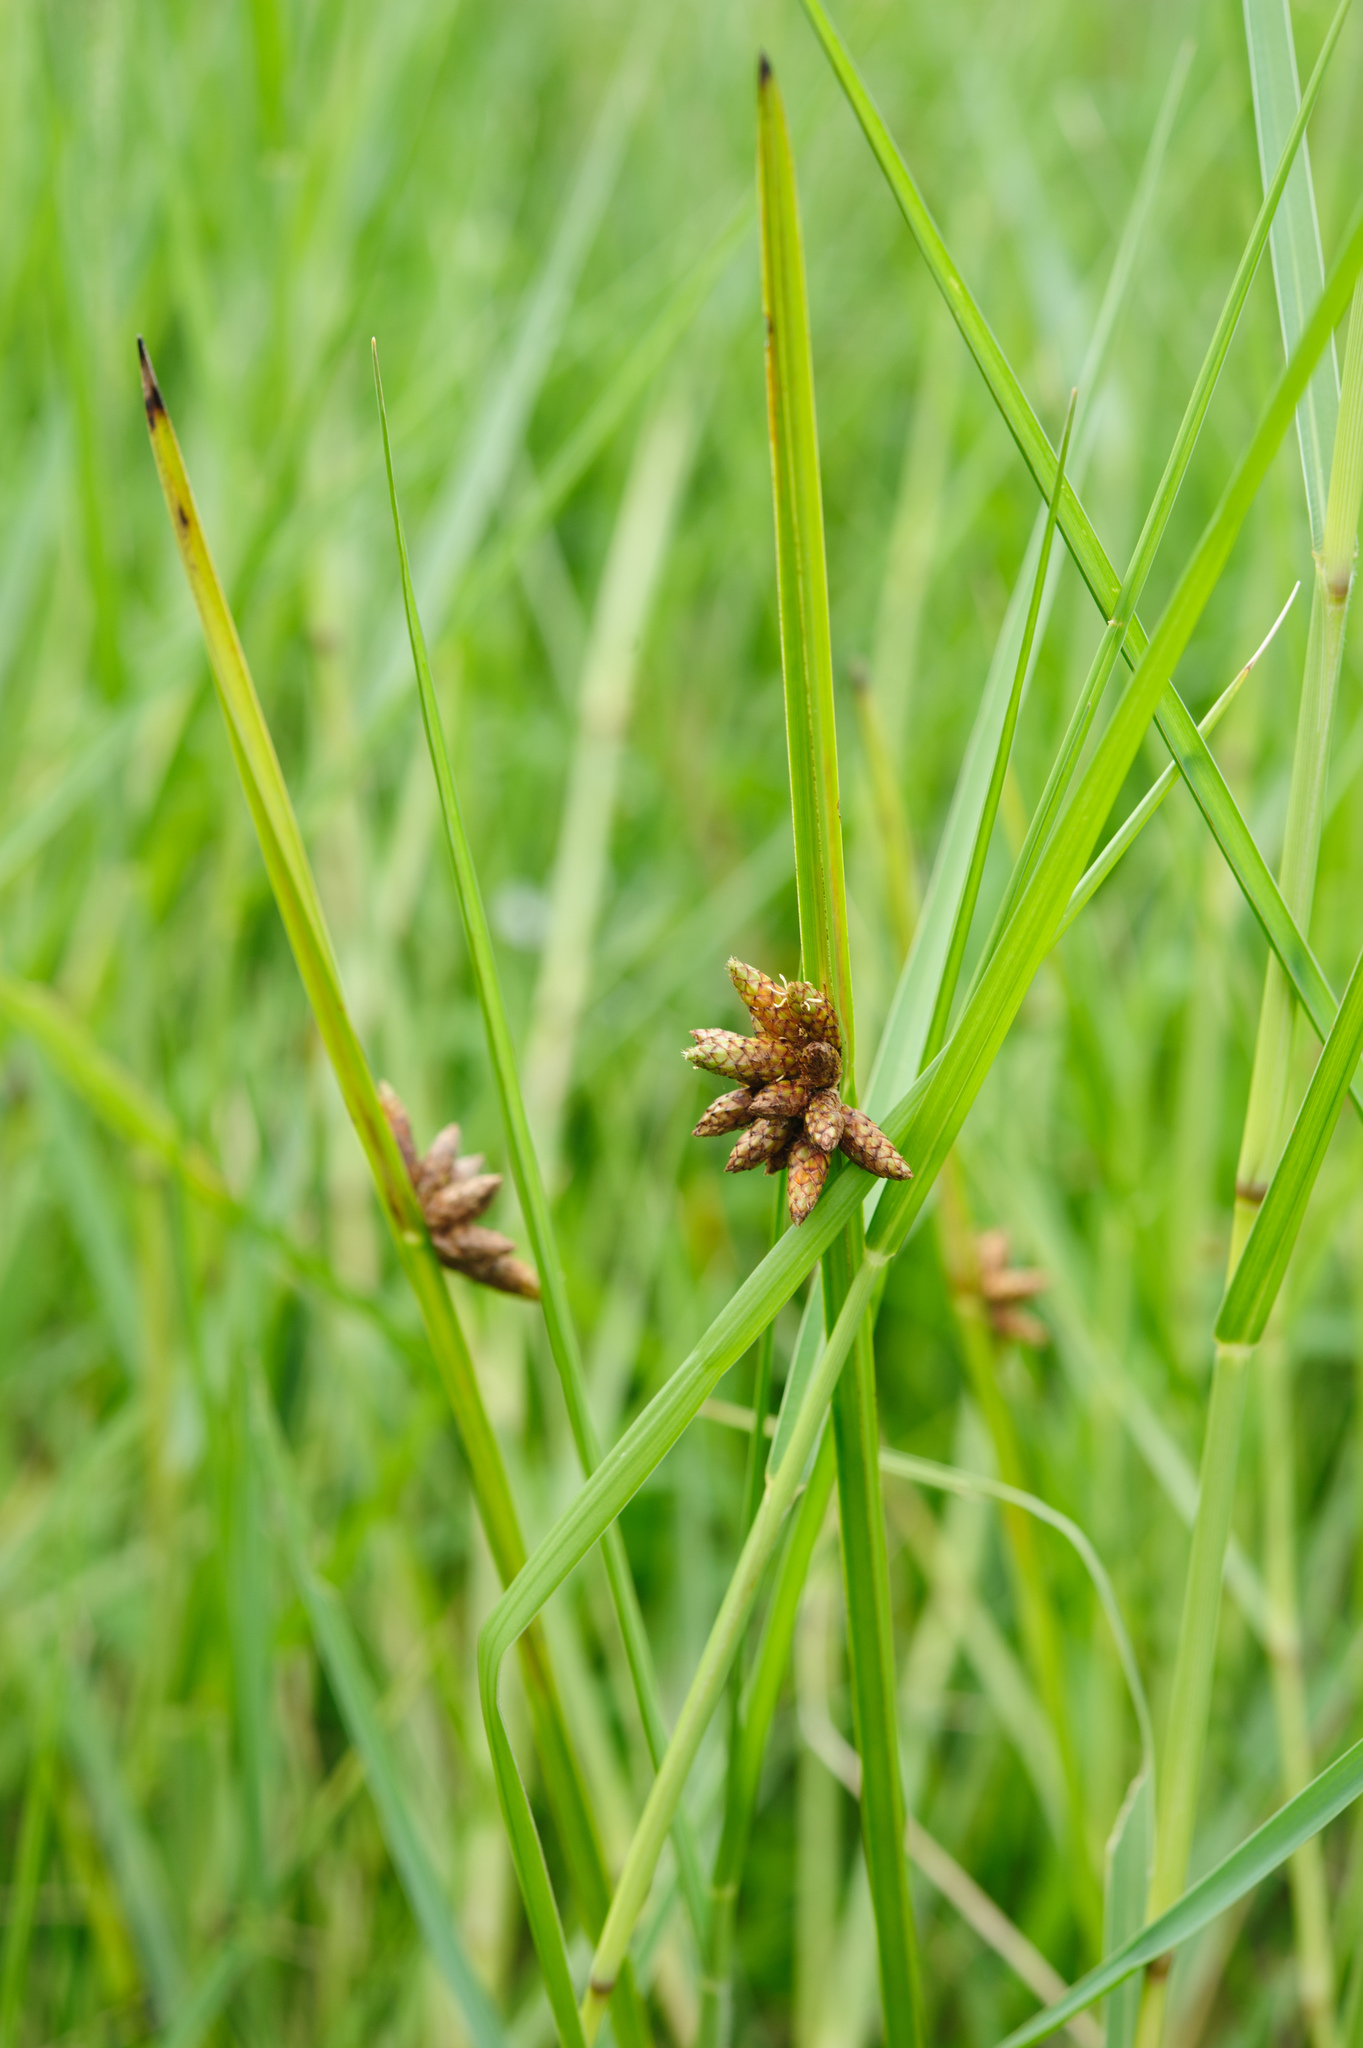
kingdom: Plantae
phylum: Tracheophyta
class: Liliopsida
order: Poales
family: Cyperaceae
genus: Schoenoplectiella
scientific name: Schoenoplectiella mucronata
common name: Bog bulrush
